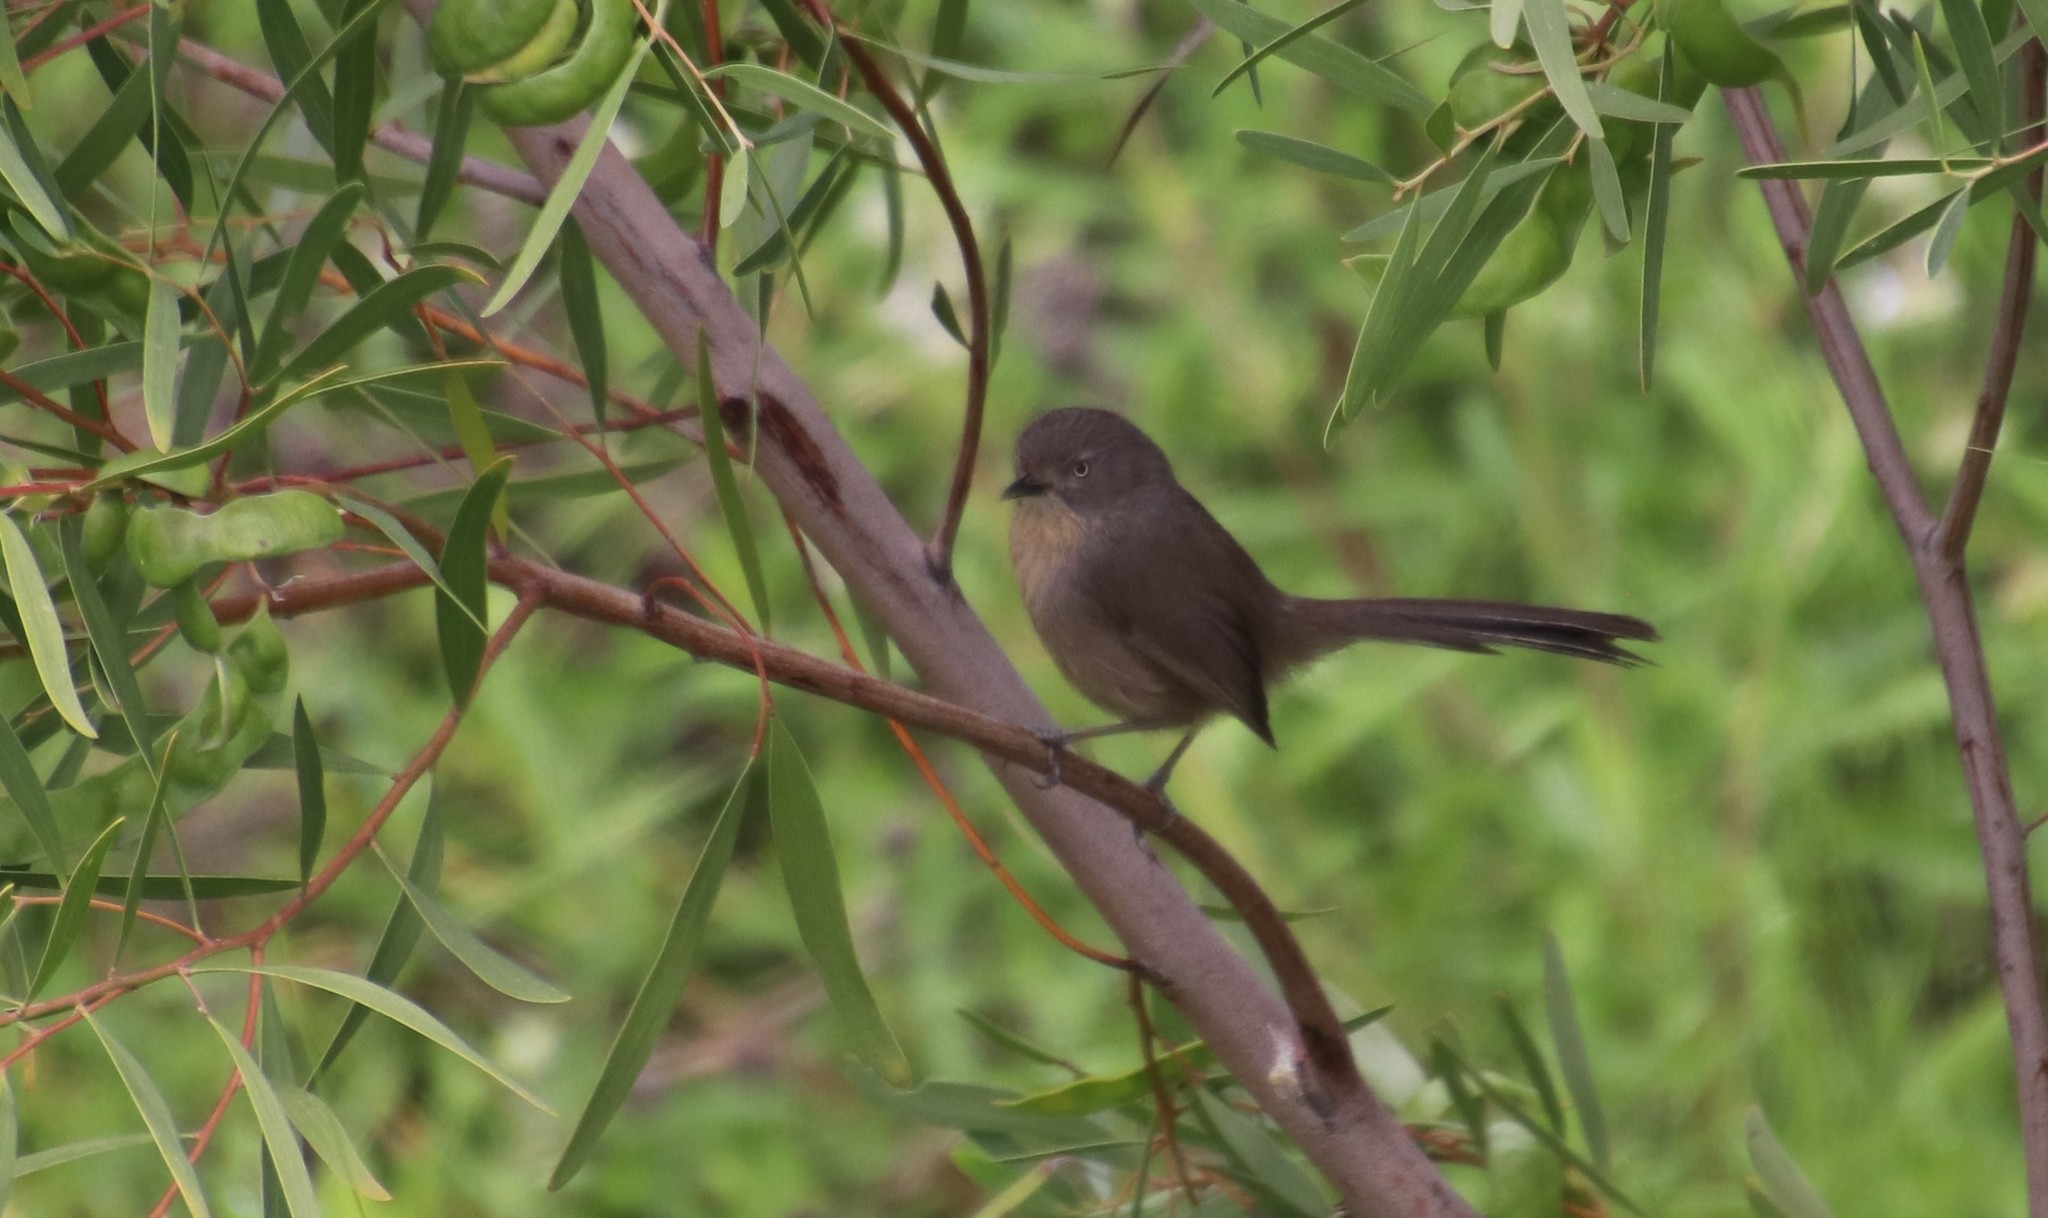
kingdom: Animalia
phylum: Chordata
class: Aves
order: Passeriformes
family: Sylviidae
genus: Chamaea
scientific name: Chamaea fasciata
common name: Wrentit
